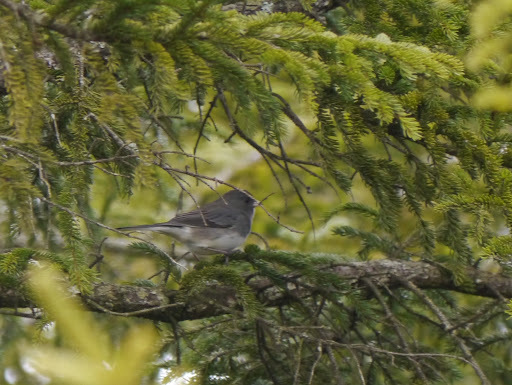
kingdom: Animalia
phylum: Chordata
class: Aves
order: Passeriformes
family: Passerellidae
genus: Junco
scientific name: Junco hyemalis
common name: Dark-eyed junco
